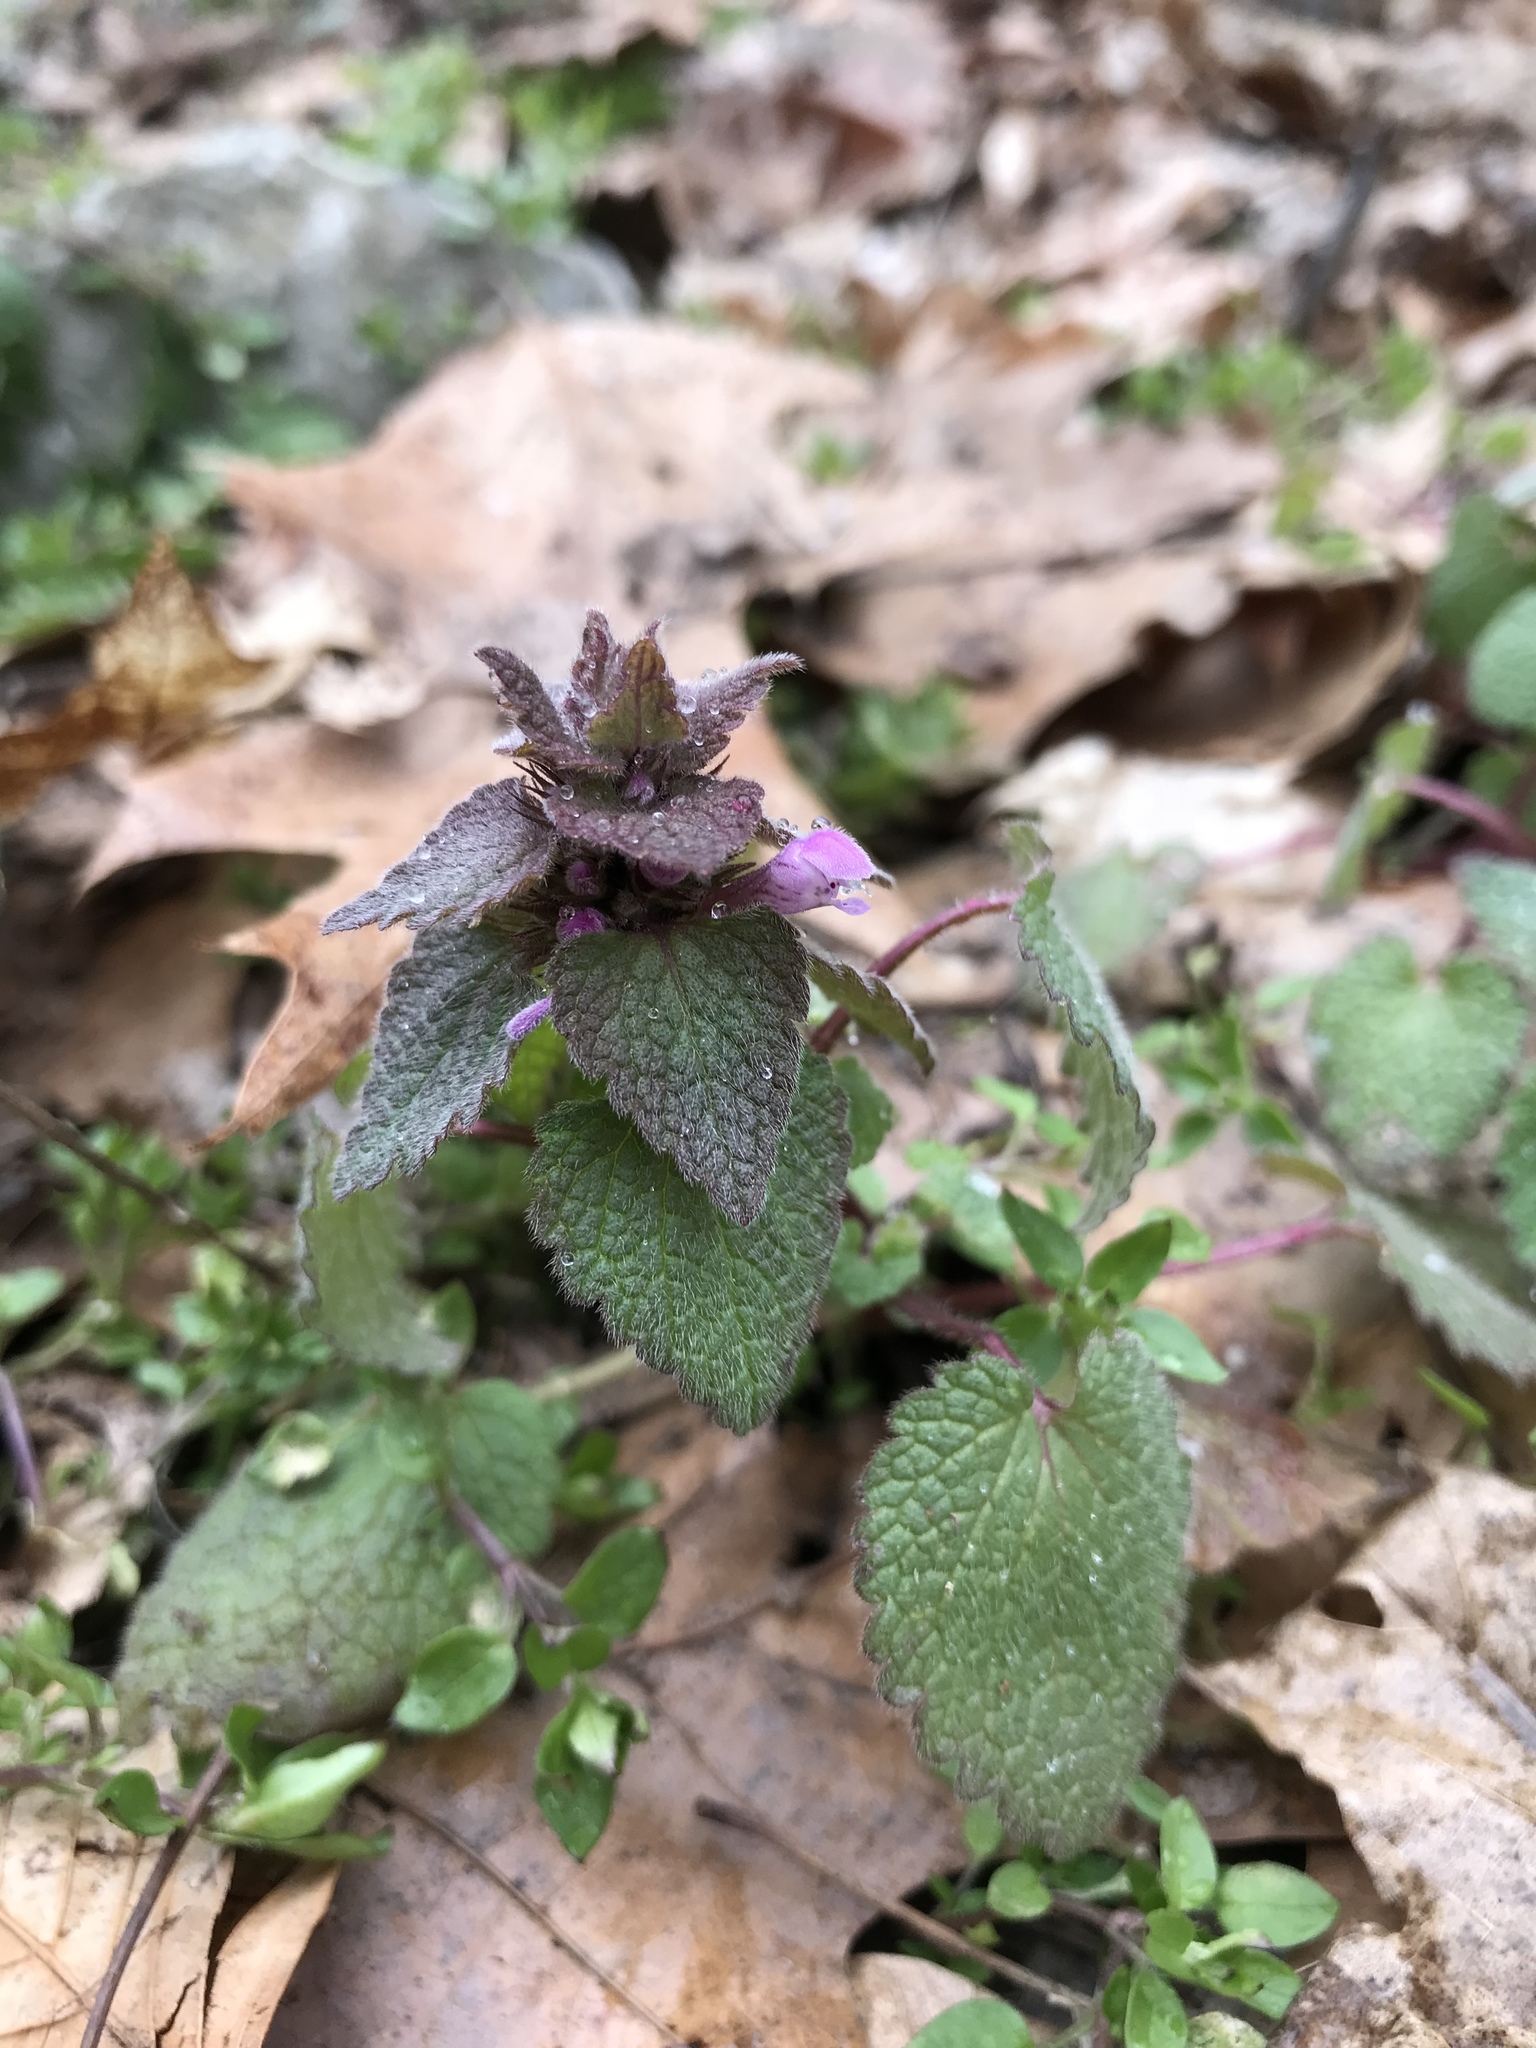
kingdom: Plantae
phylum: Tracheophyta
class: Magnoliopsida
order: Lamiales
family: Lamiaceae
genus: Lamium
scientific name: Lamium purpureum
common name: Red dead-nettle
